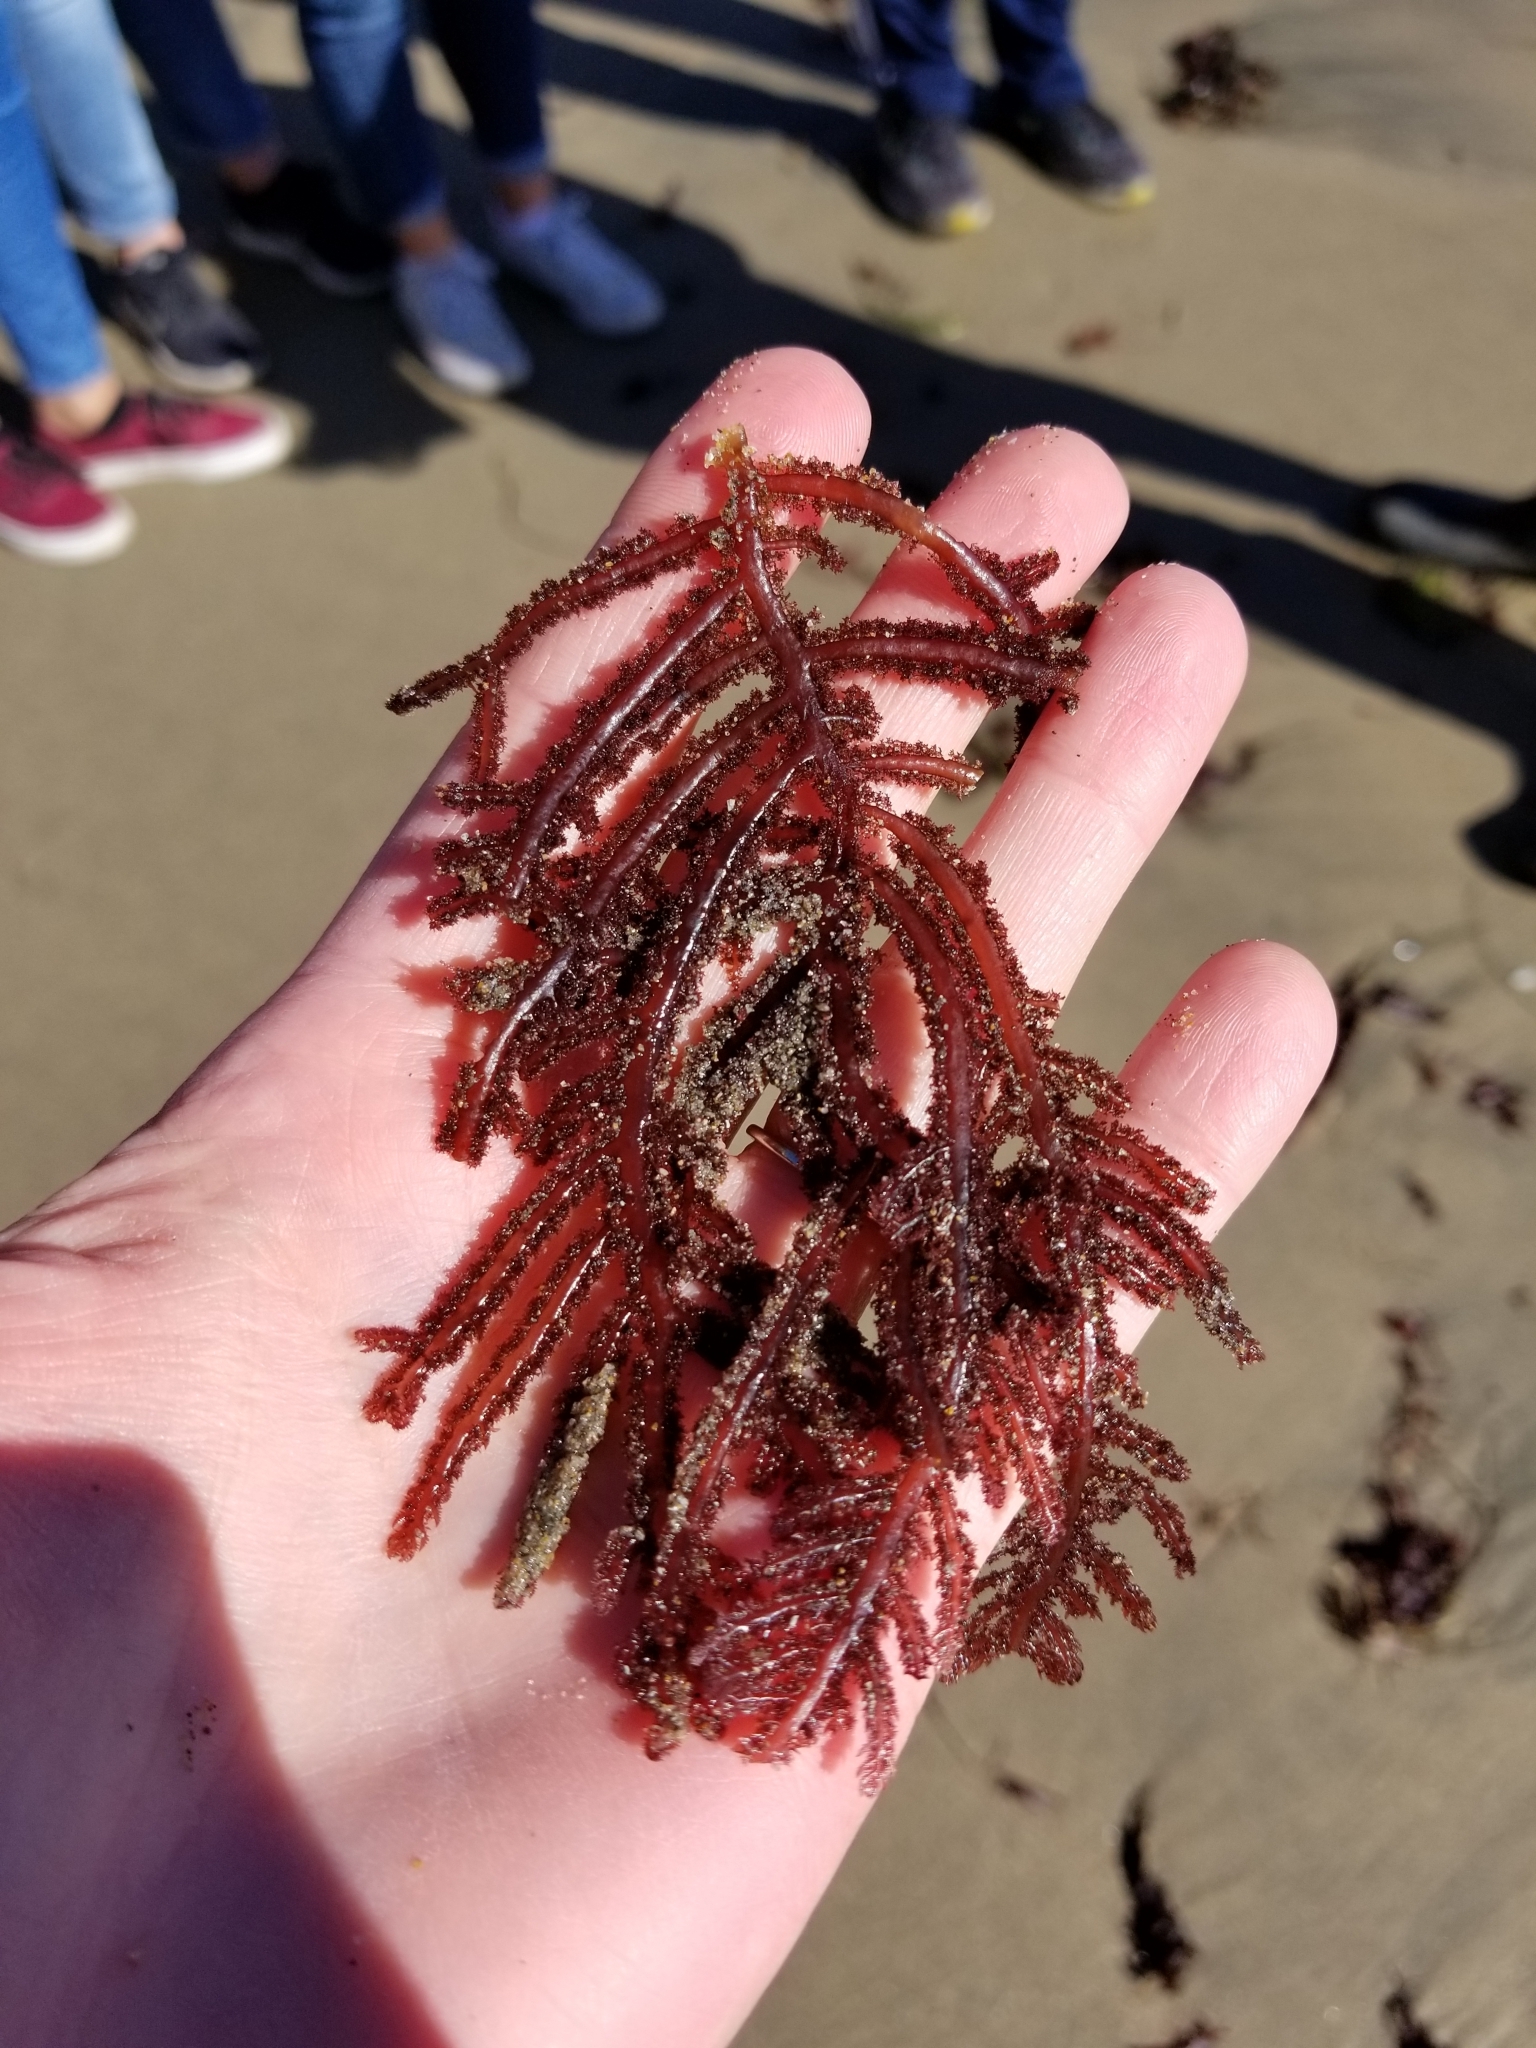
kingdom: Plantae
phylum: Rhodophyta
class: Florideophyceae
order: Ceramiales
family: Wrangeliaceae
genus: Neoptilota
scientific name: Neoptilota densa
